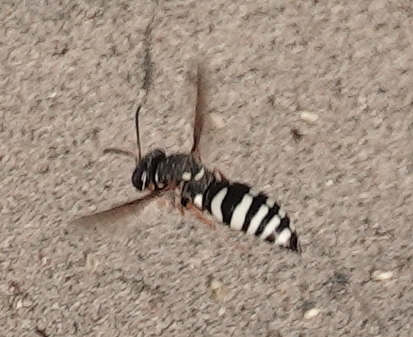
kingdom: Animalia
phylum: Arthropoda
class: Insecta
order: Hymenoptera
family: Crabronidae
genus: Bicyrtes
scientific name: Bicyrtes ventralis
